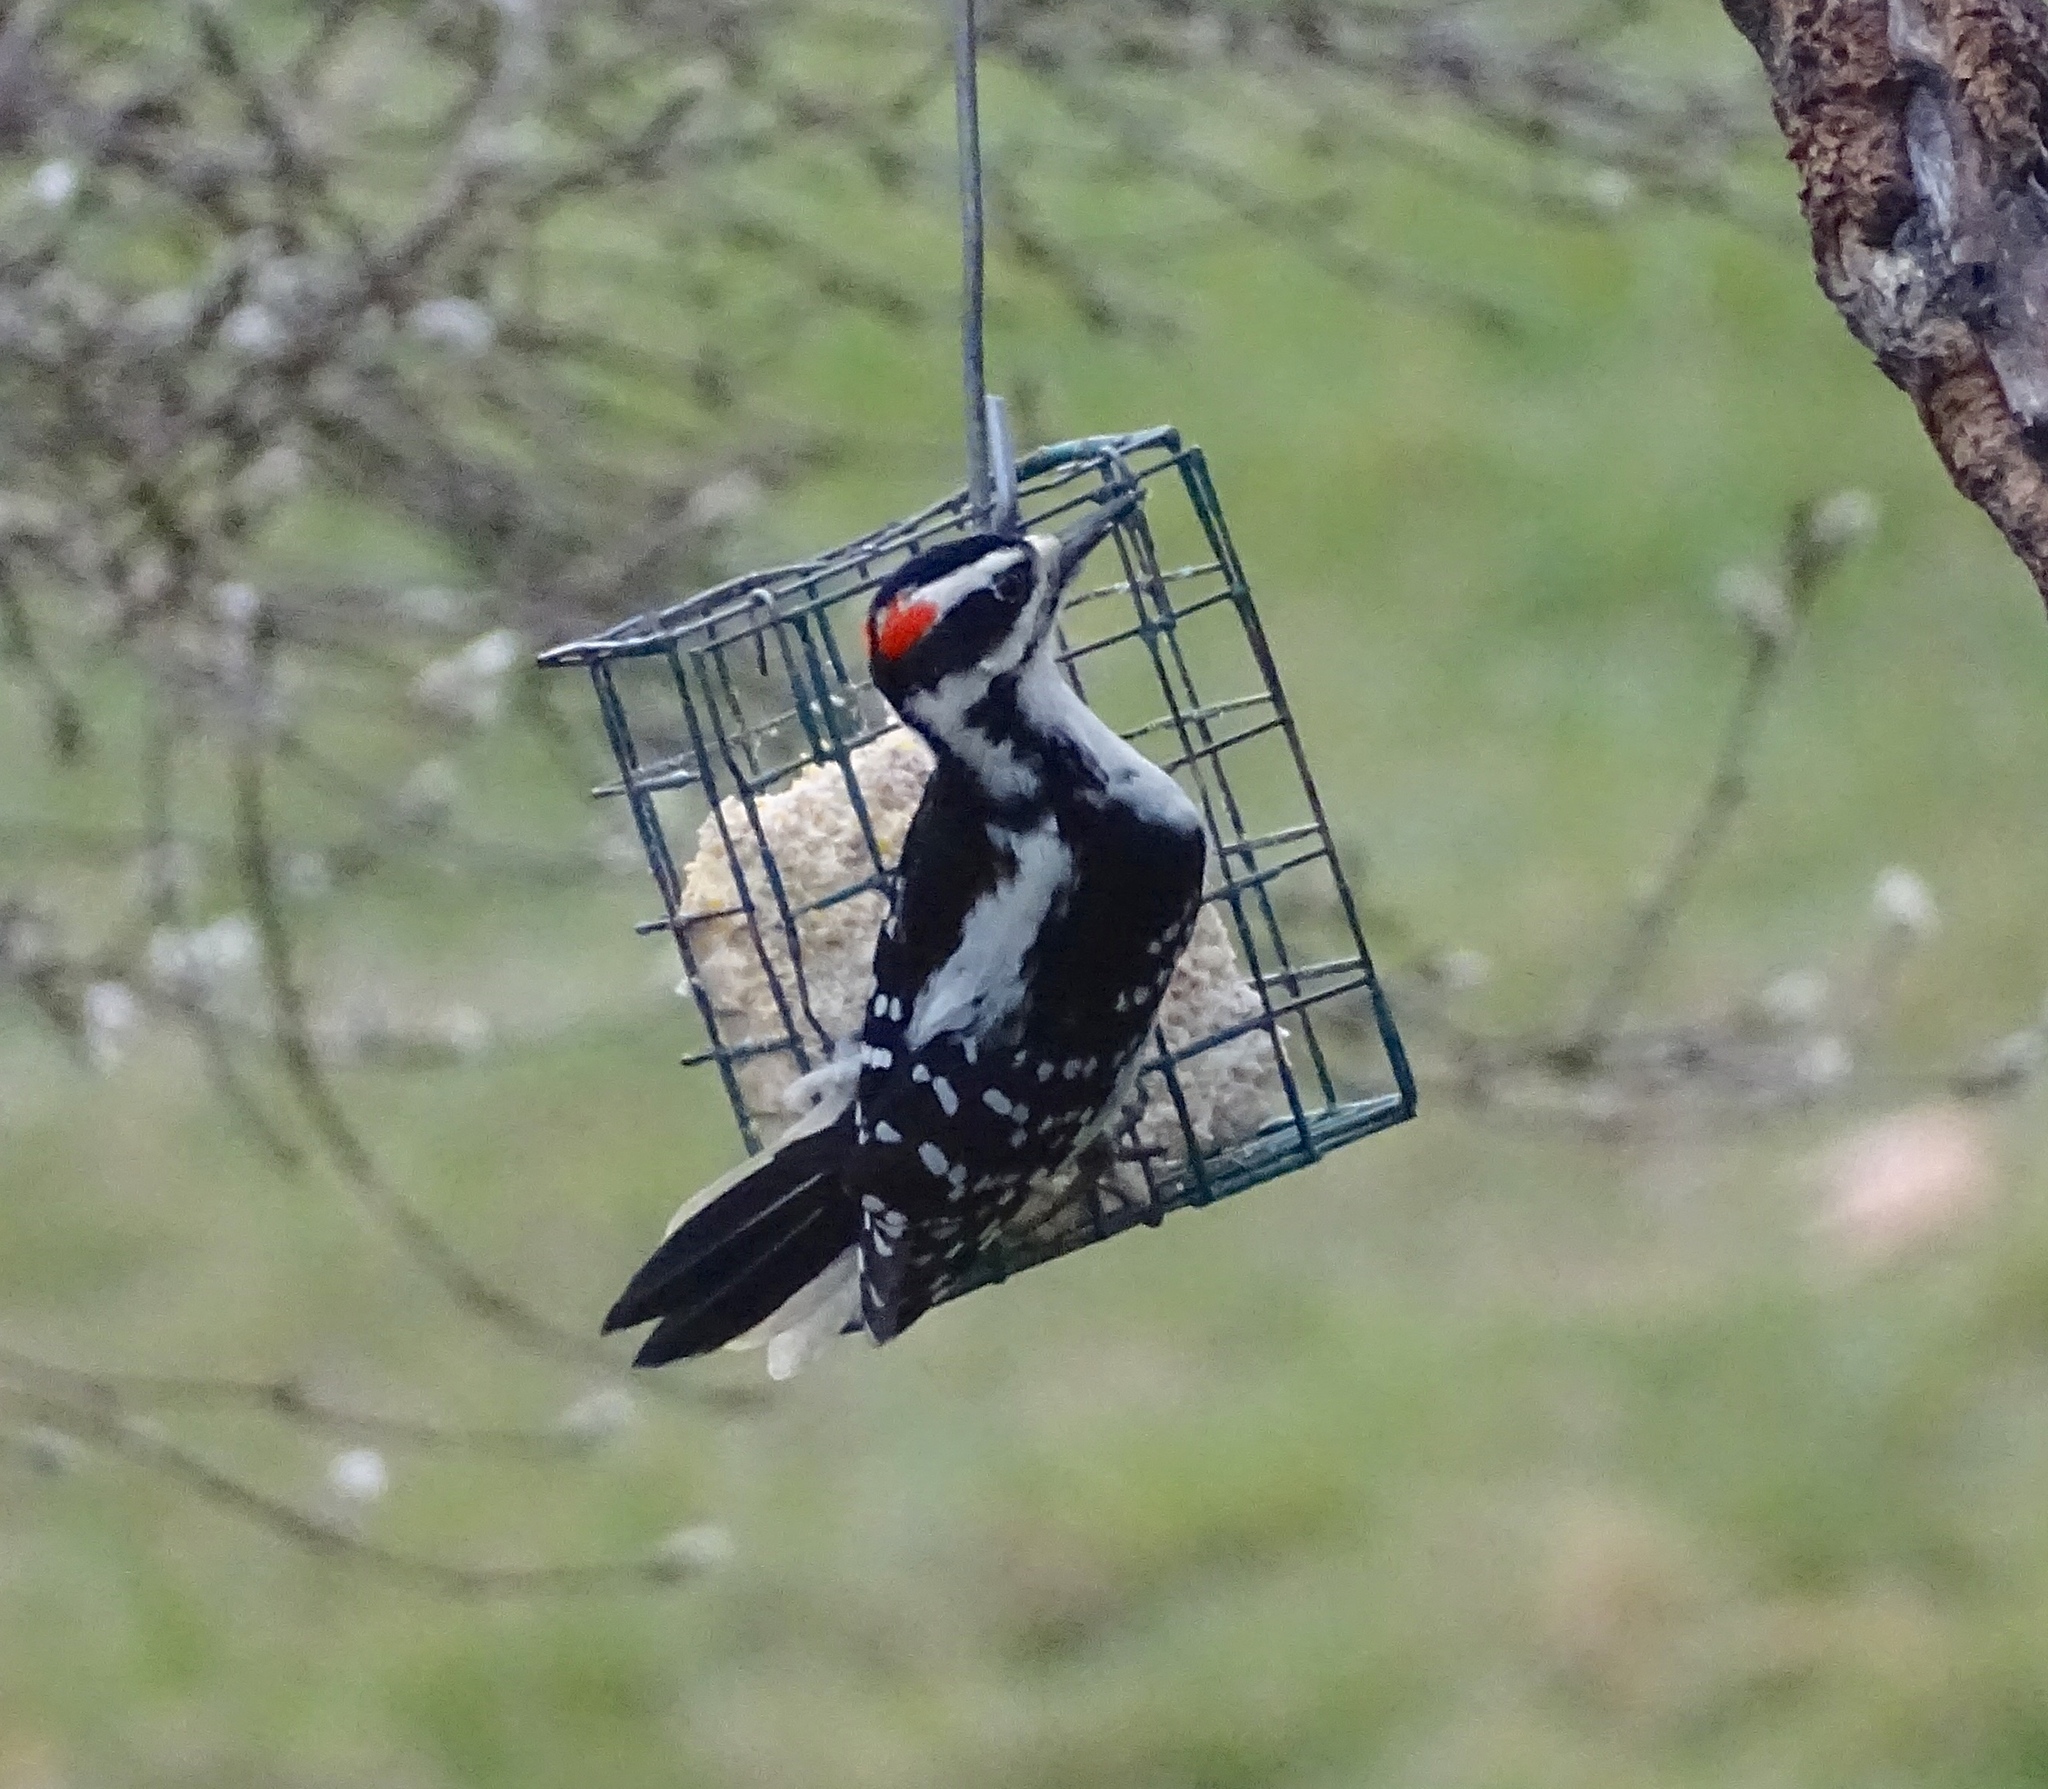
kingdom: Animalia
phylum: Chordata
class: Aves
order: Piciformes
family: Picidae
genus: Leuconotopicus
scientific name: Leuconotopicus villosus
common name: Hairy woodpecker
